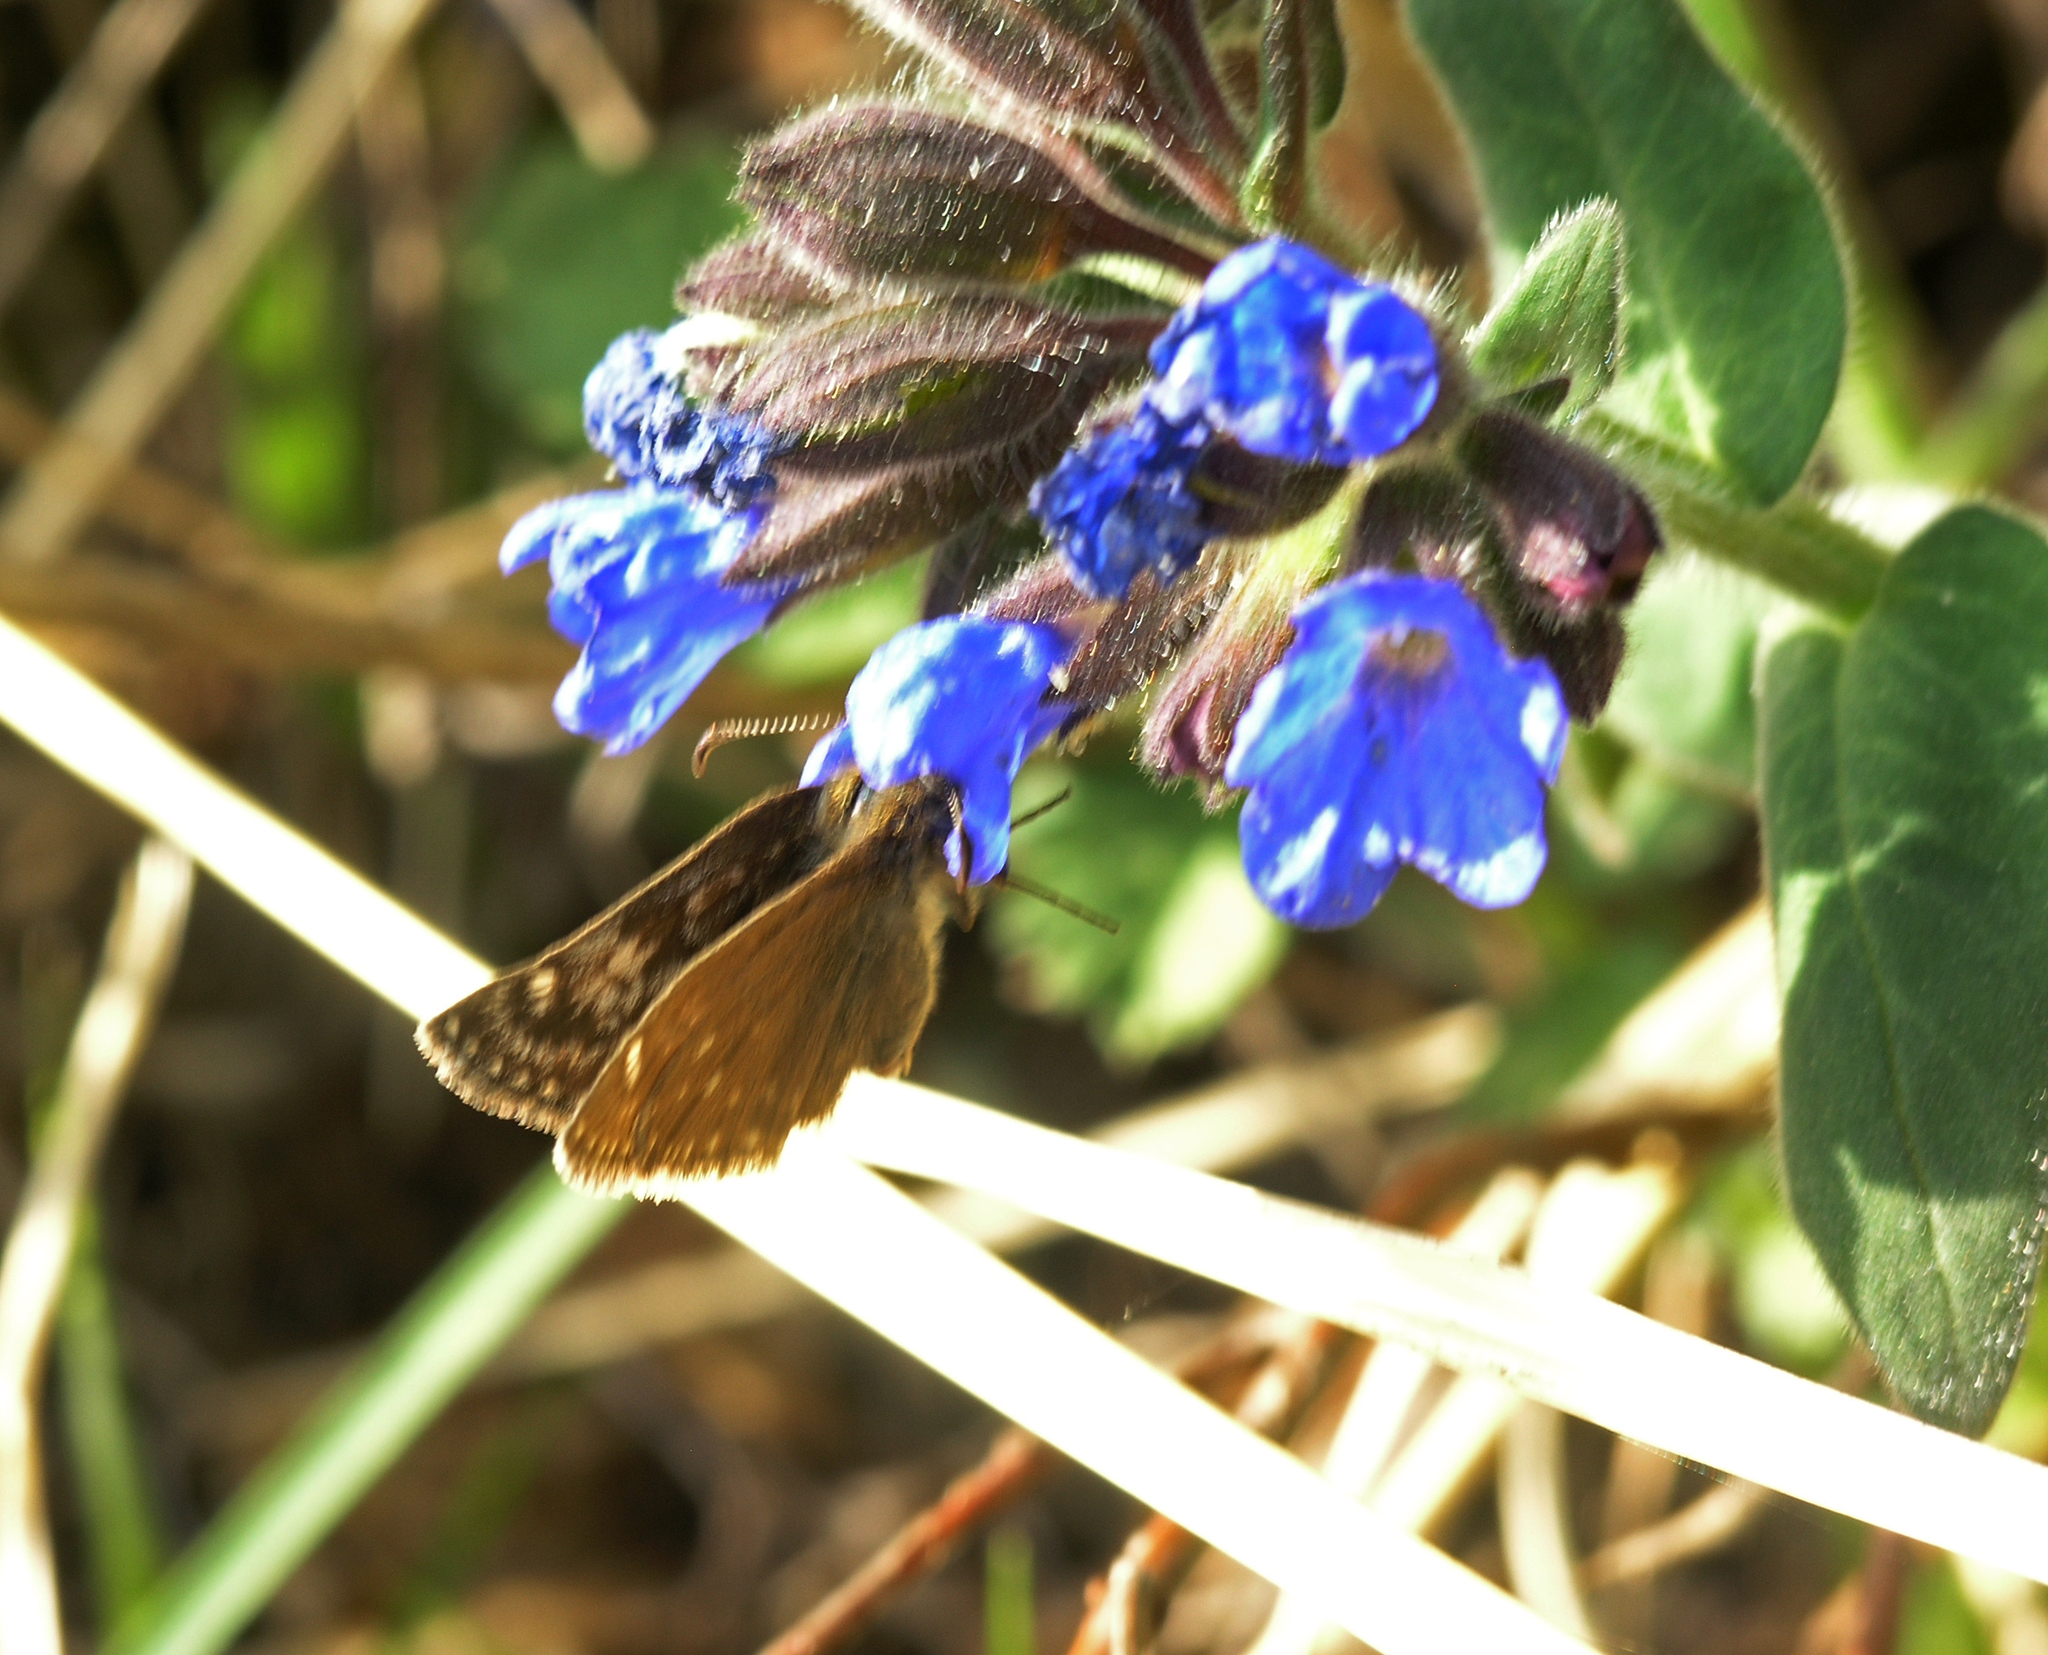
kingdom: Plantae
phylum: Tracheophyta
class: Magnoliopsida
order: Boraginales
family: Boraginaceae
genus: Pulmonaria
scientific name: Pulmonaria mollis
